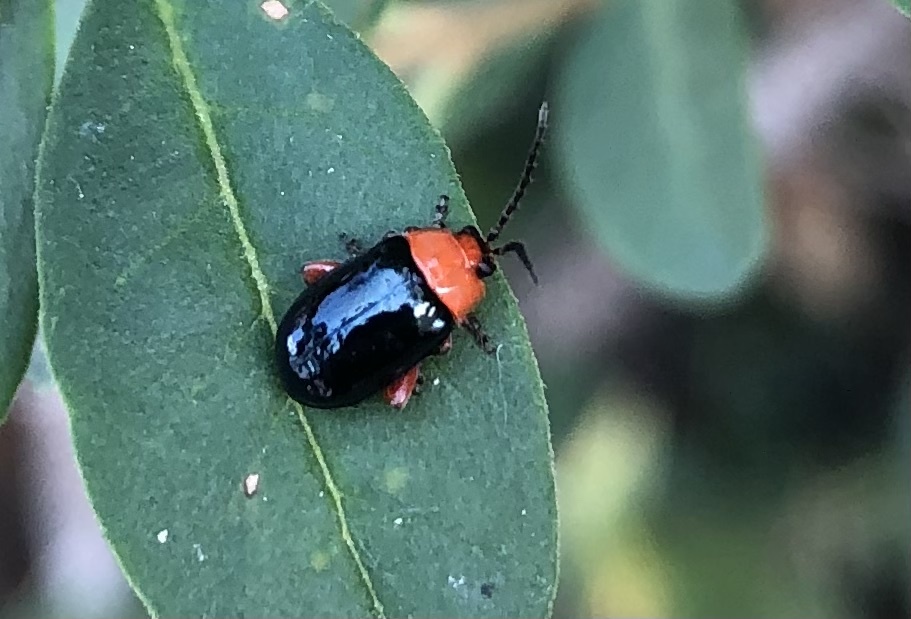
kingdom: Animalia
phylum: Arthropoda
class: Insecta
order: Coleoptera
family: Chrysomelidae
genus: Asphaera
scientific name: Asphaera lustrans
